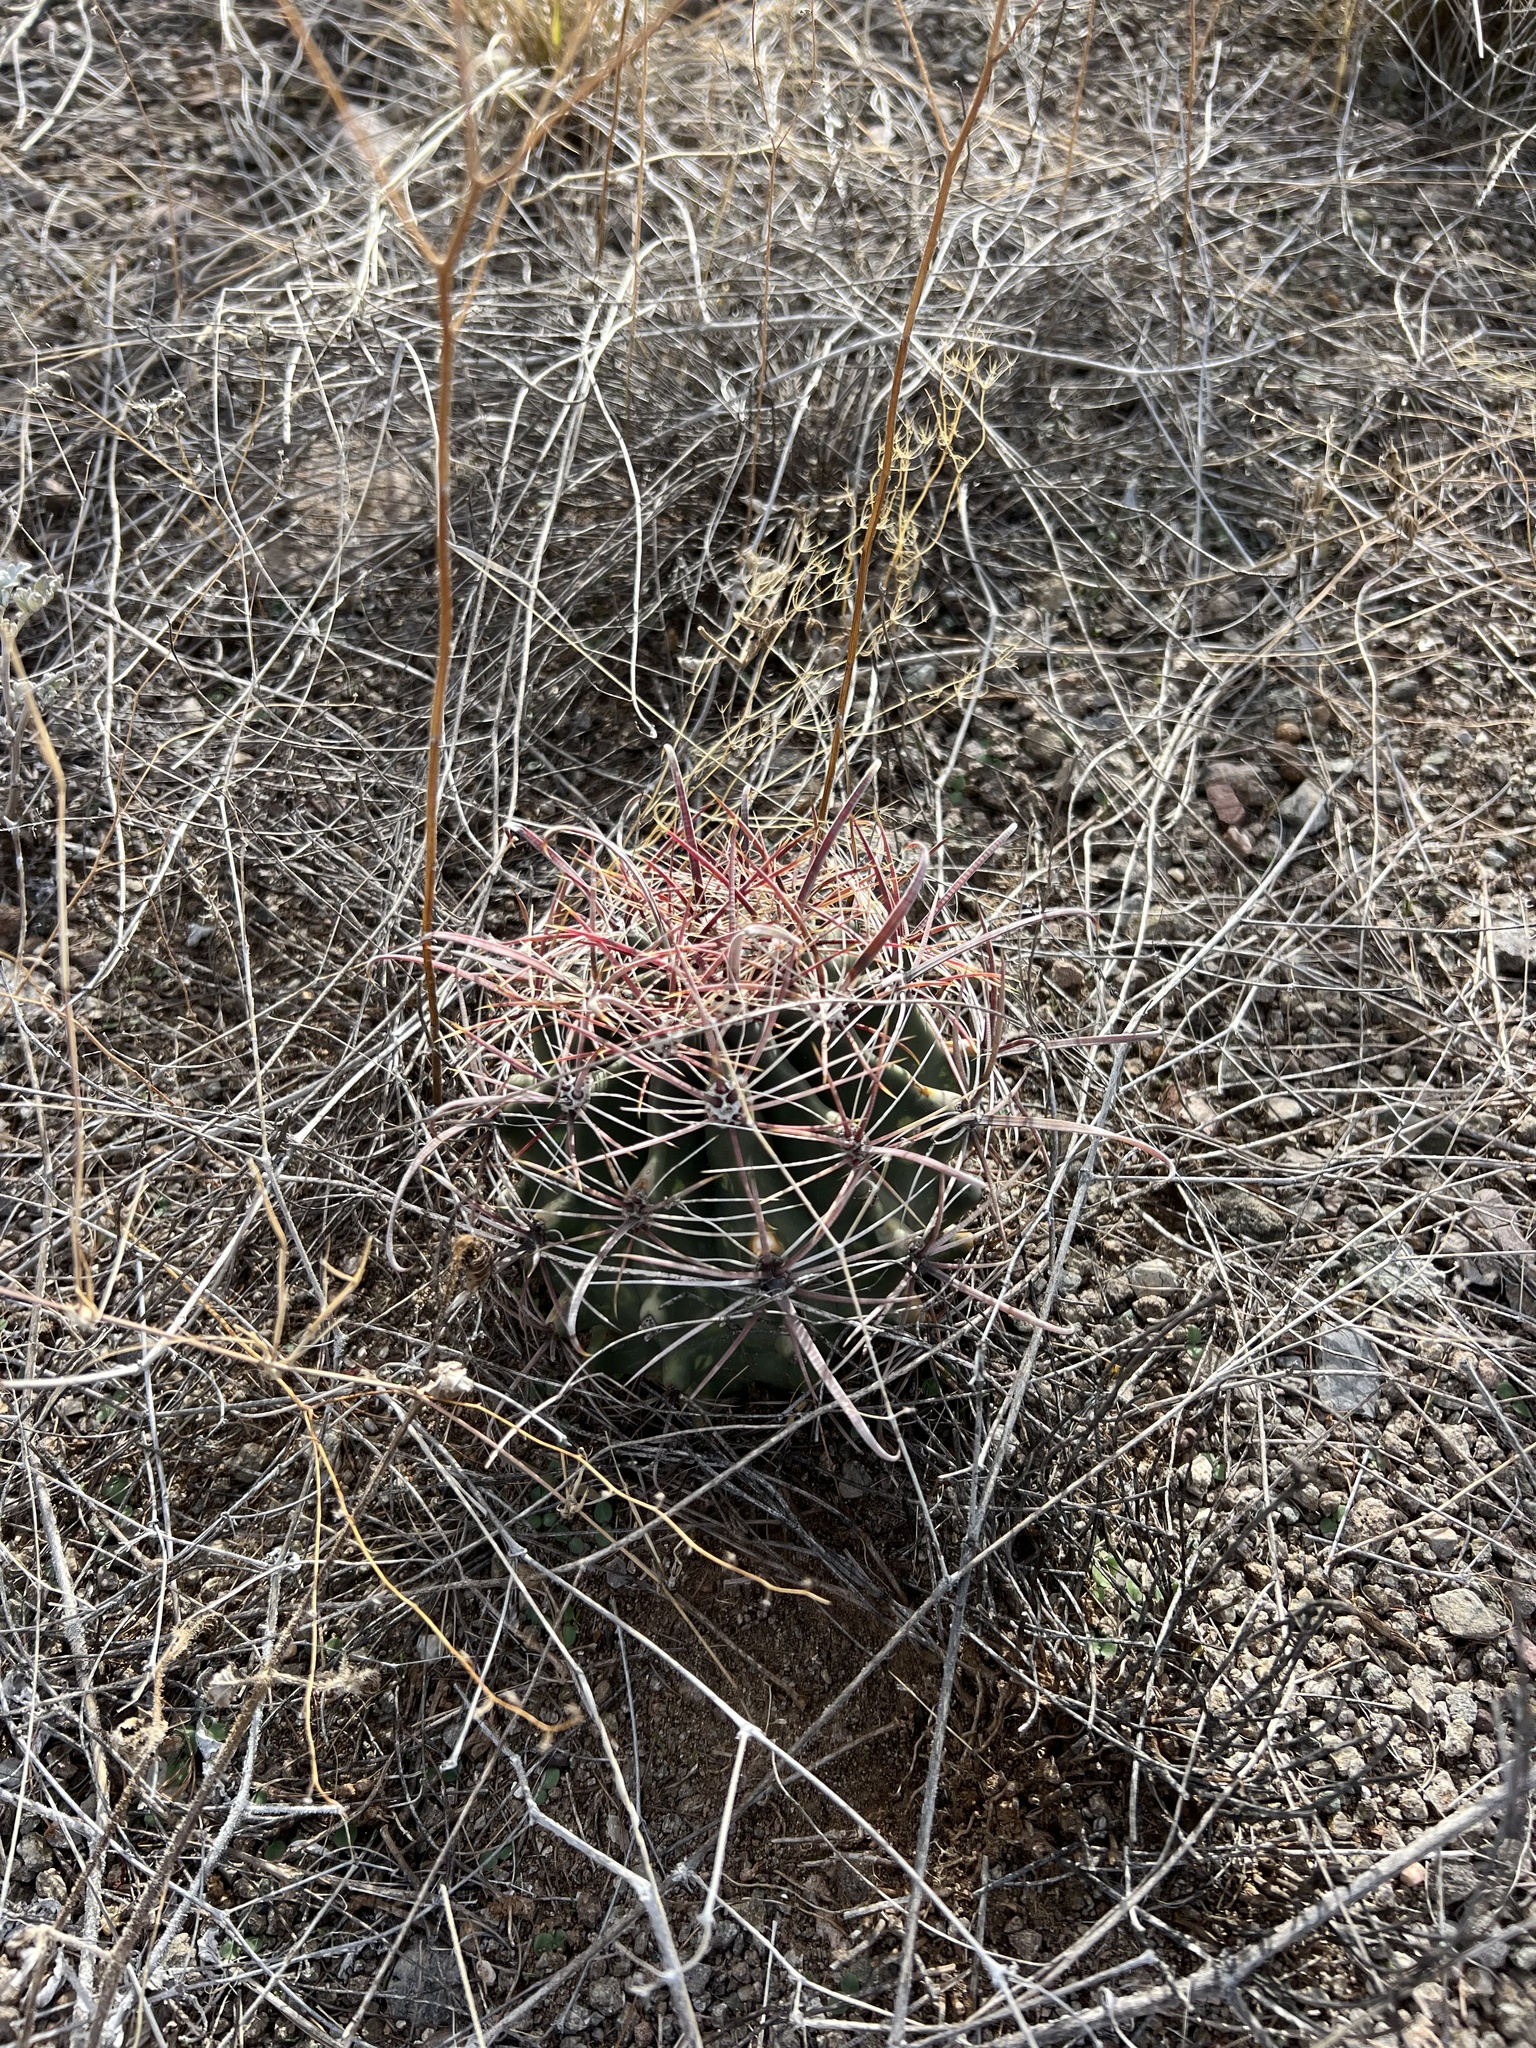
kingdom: Plantae
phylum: Tracheophyta
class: Magnoliopsida
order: Caryophyllales
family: Cactaceae
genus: Ferocactus
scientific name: Ferocactus wislizeni
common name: Candy barrel cactus
